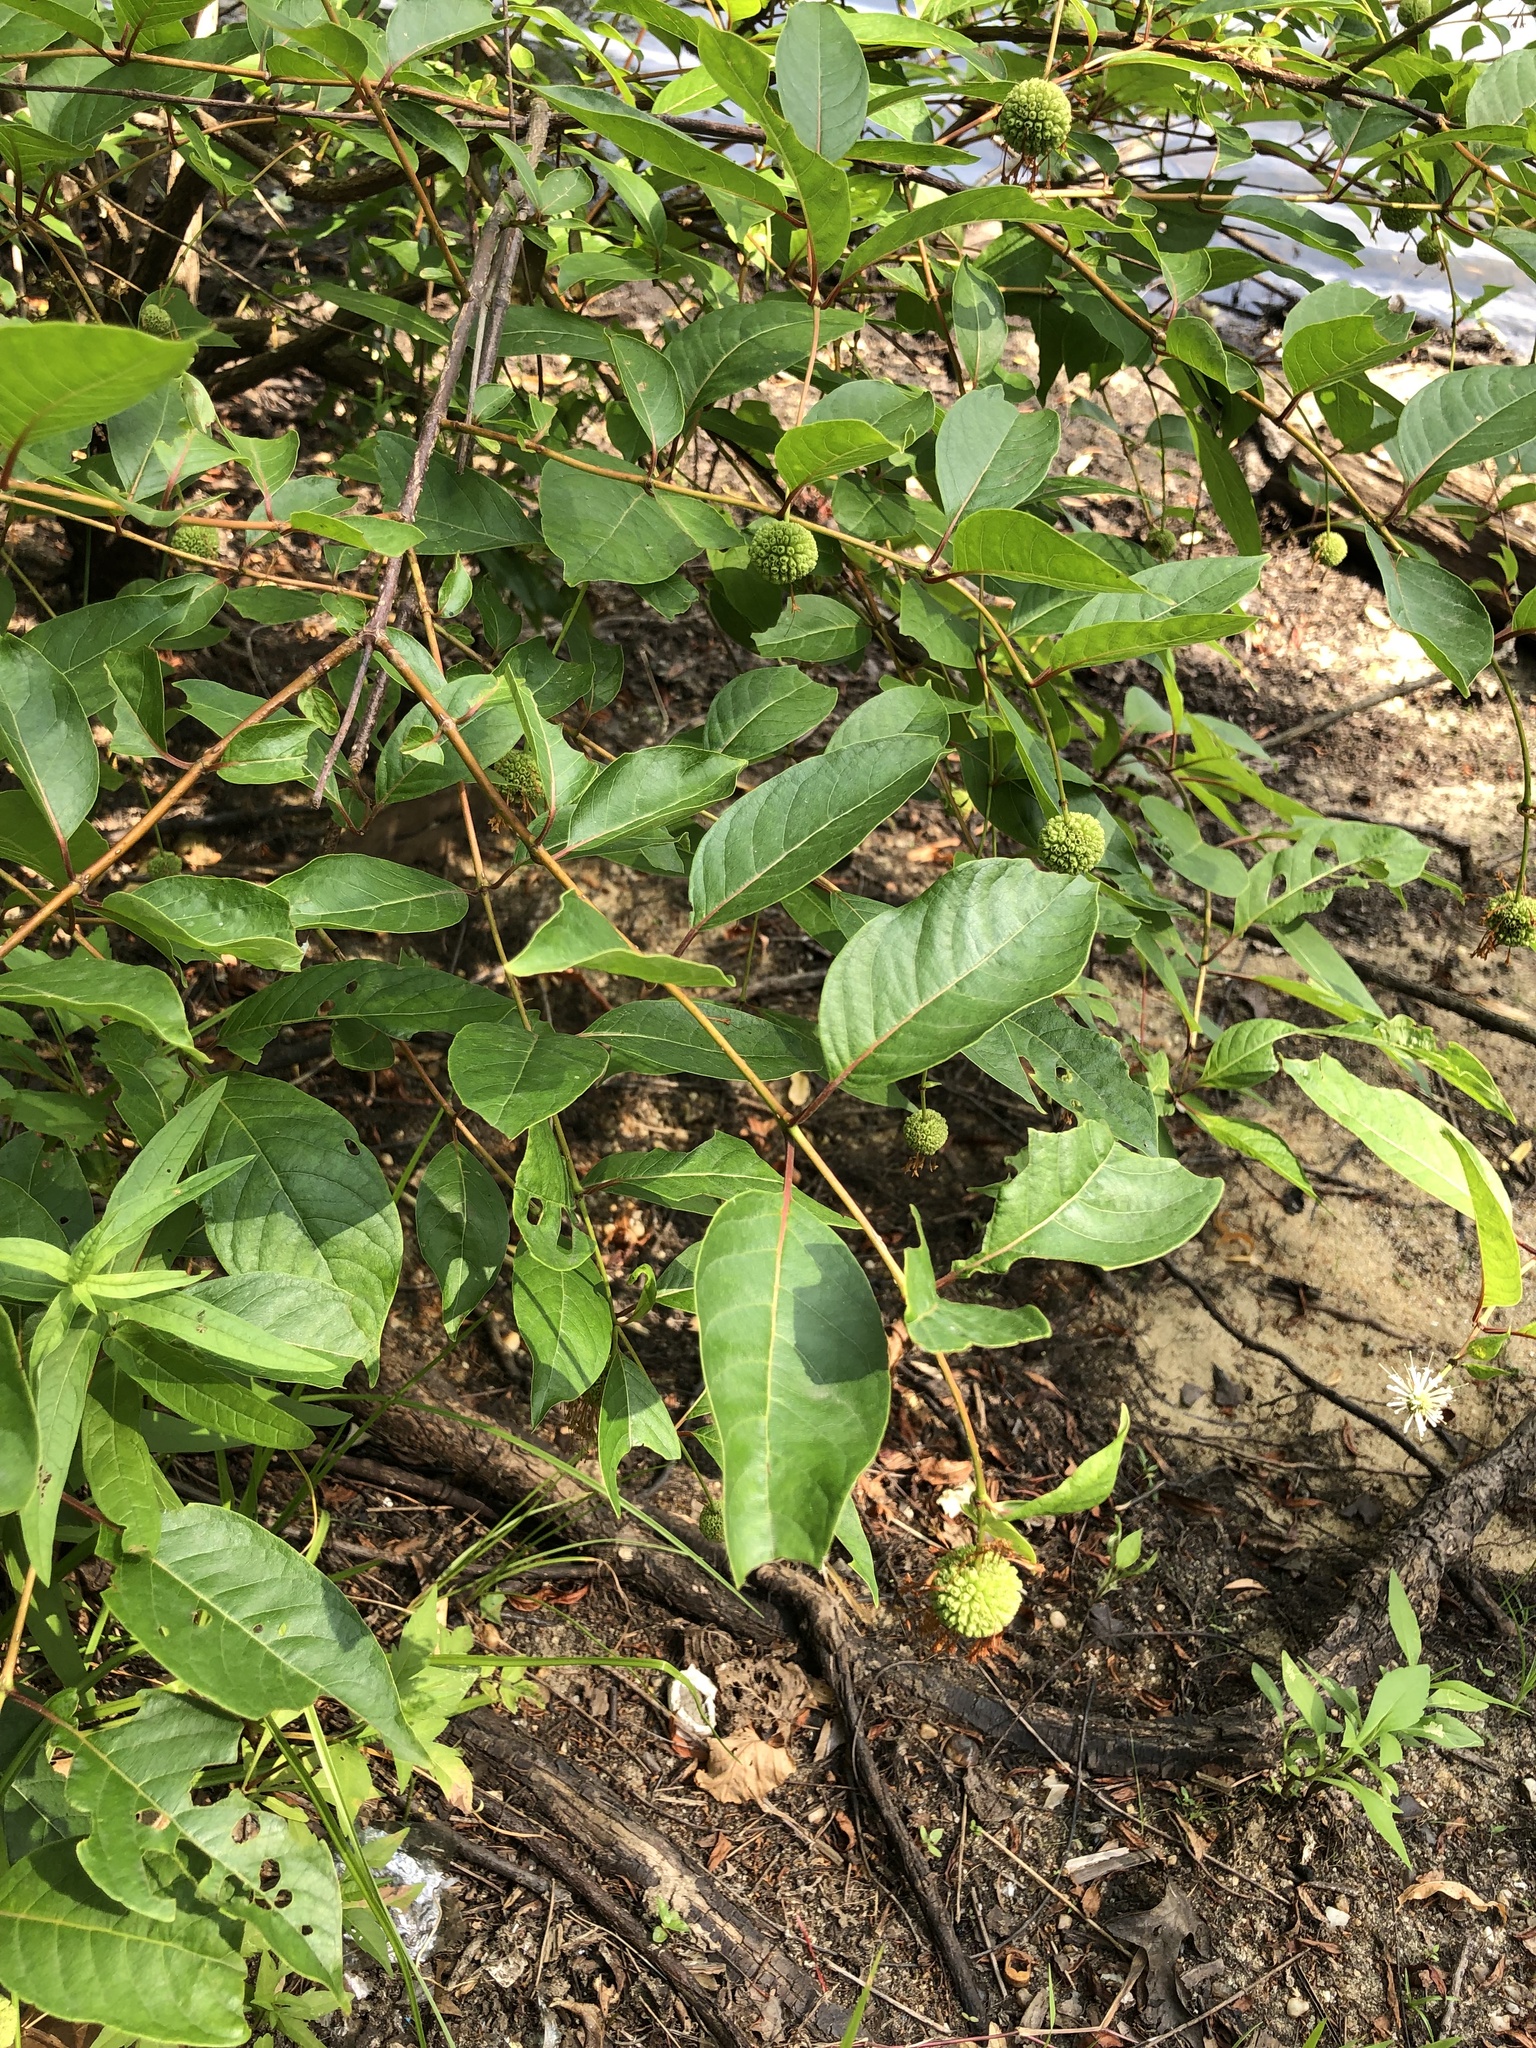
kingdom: Plantae
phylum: Tracheophyta
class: Magnoliopsida
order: Gentianales
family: Rubiaceae
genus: Cephalanthus
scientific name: Cephalanthus occidentalis
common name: Button-willow
